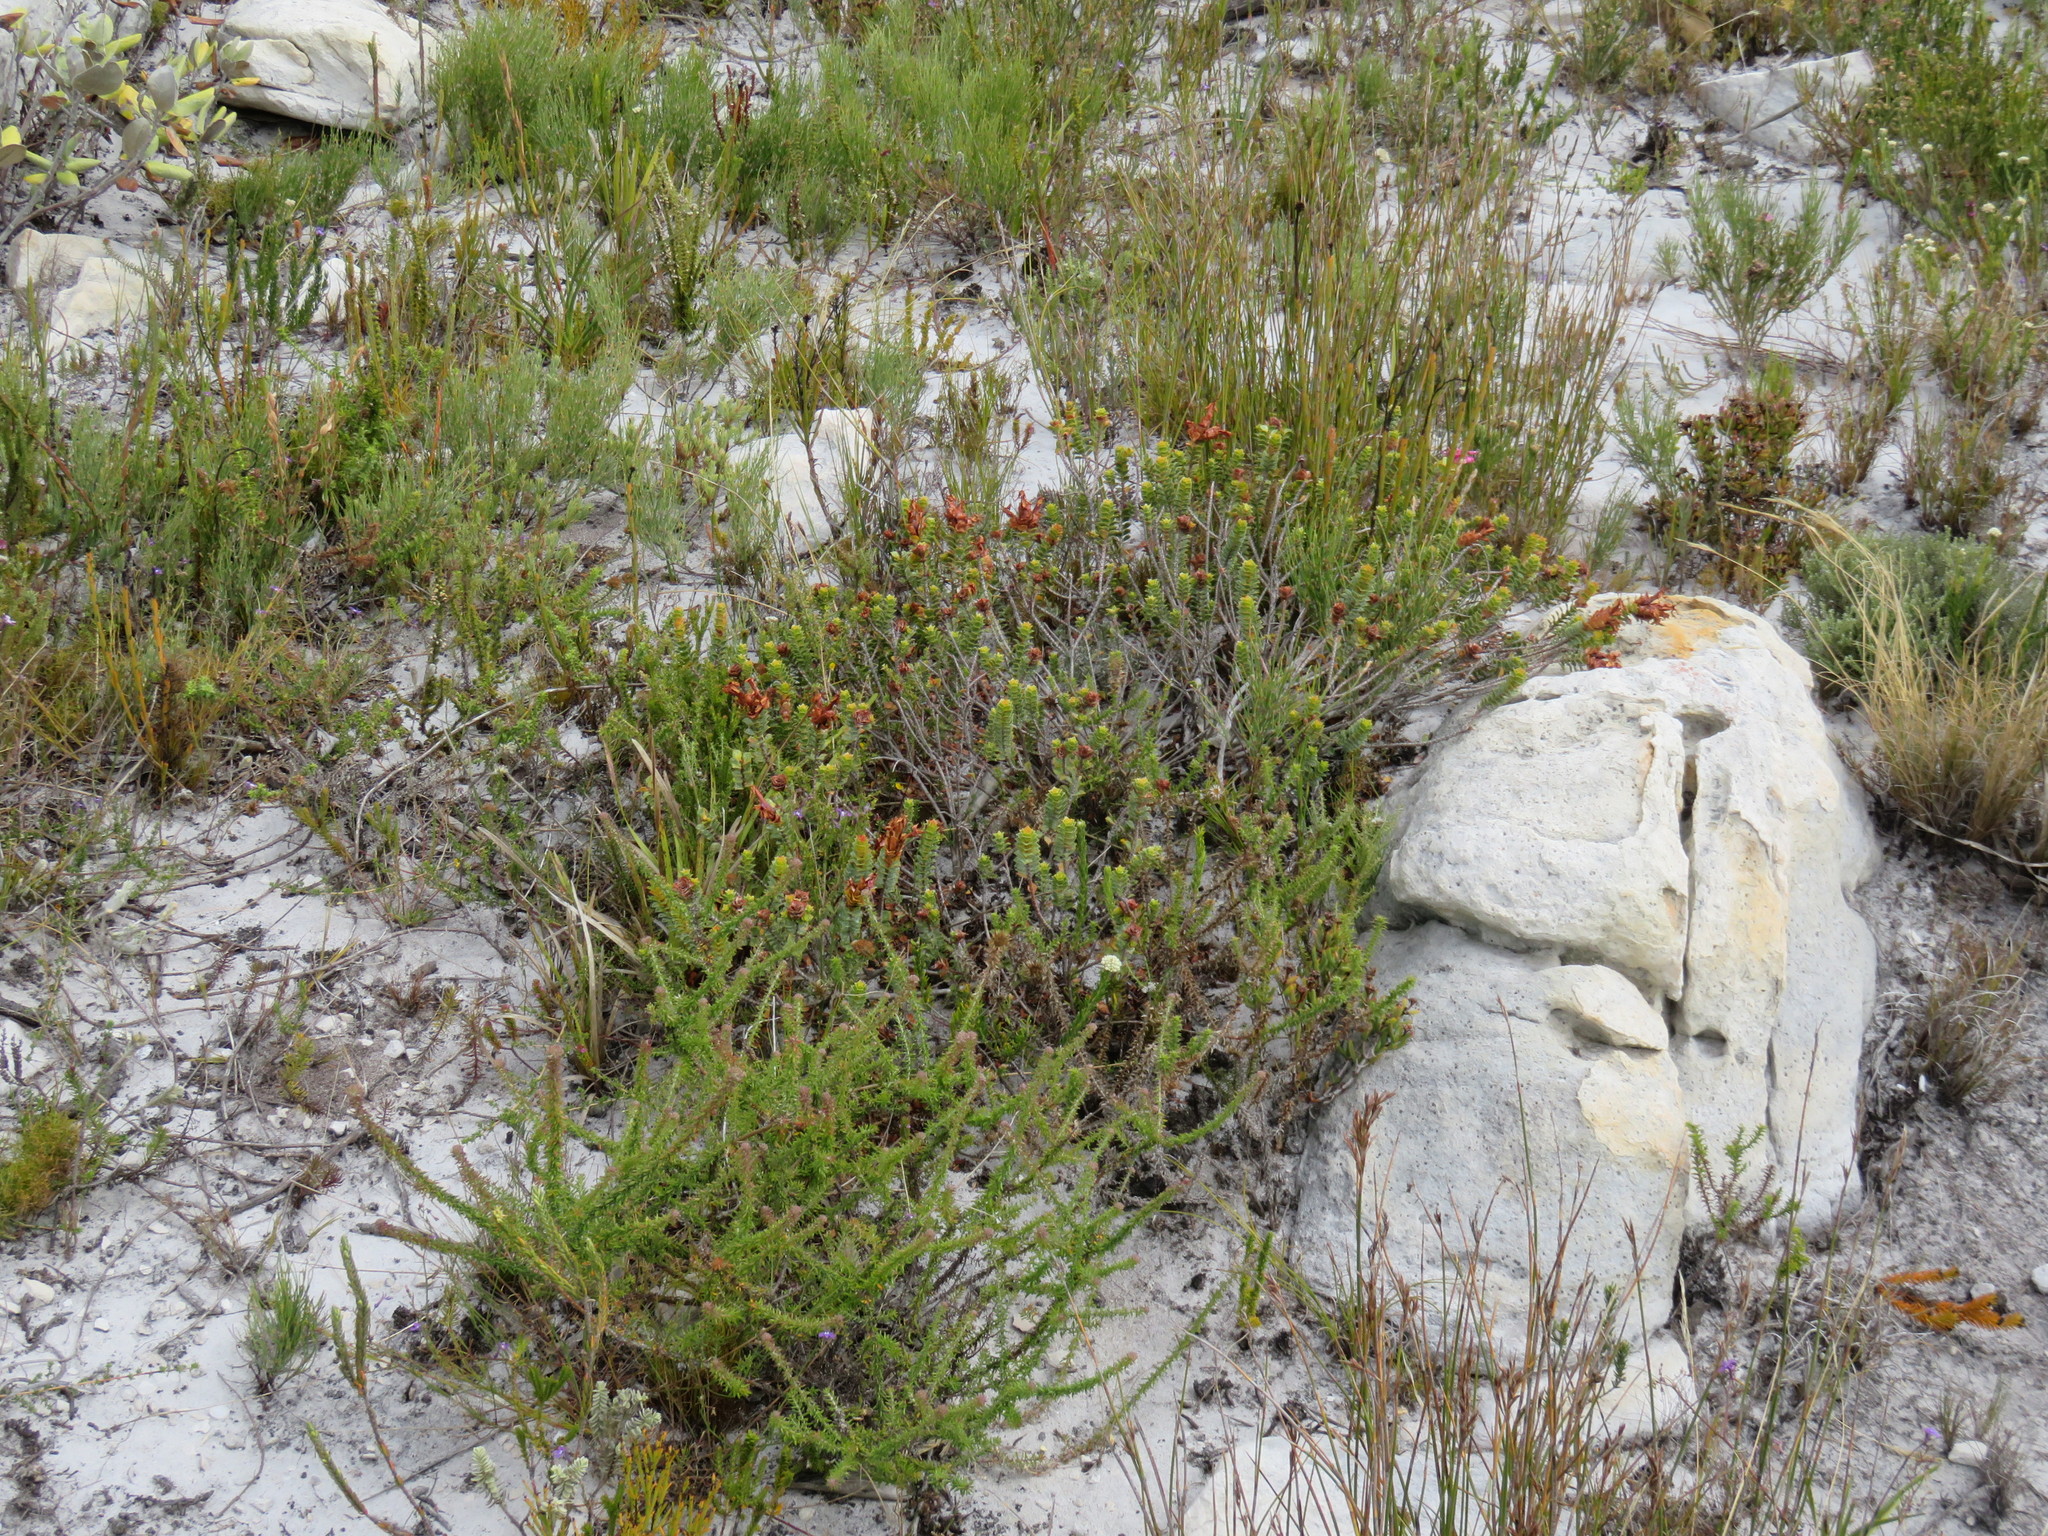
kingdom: Plantae
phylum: Tracheophyta
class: Magnoliopsida
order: Myrtales
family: Penaeaceae
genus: Saltera
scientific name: Saltera sarcocolla
